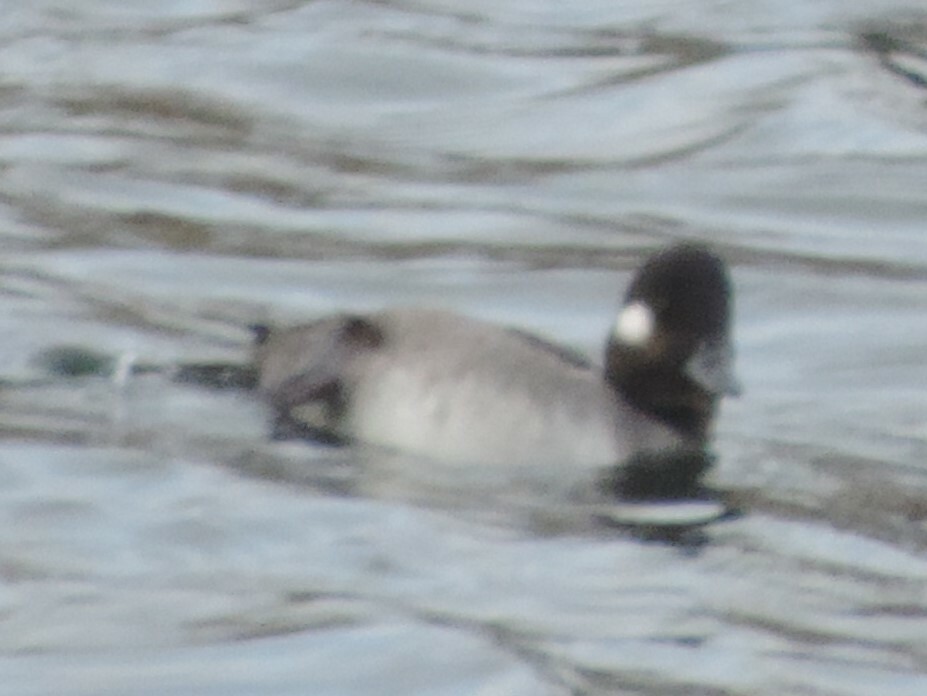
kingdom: Animalia
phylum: Chordata
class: Aves
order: Anseriformes
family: Anatidae
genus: Bucephala
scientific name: Bucephala albeola
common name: Bufflehead
